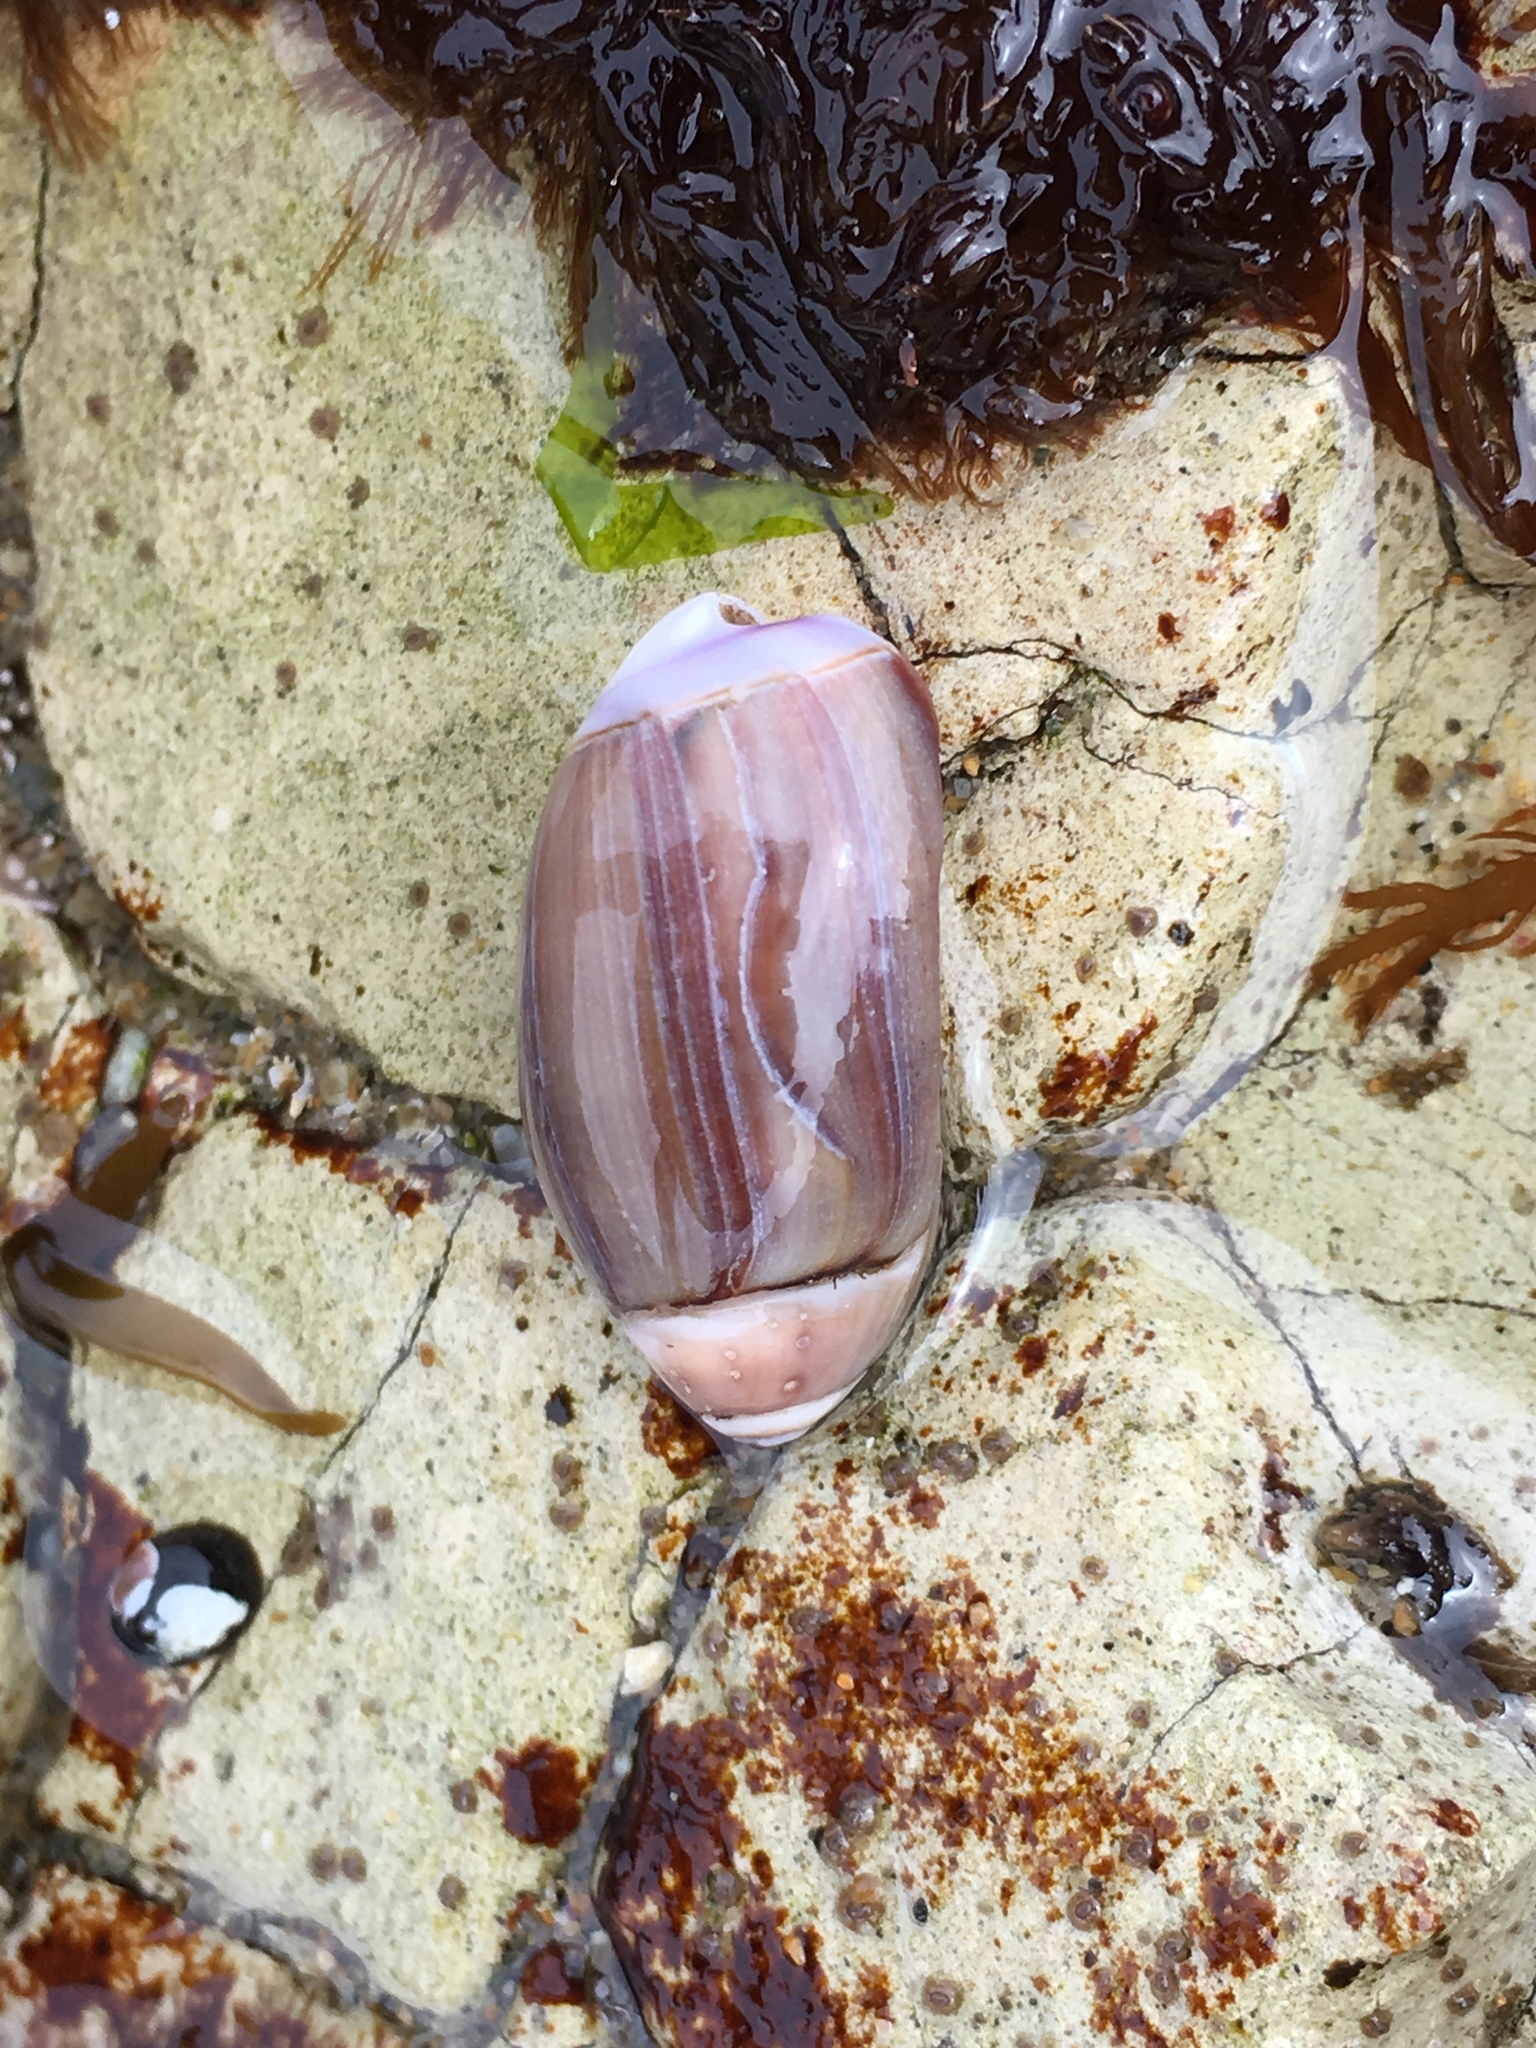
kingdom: Animalia
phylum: Mollusca
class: Gastropoda
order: Neogastropoda
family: Olividae
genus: Callianax
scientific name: Callianax biplicata
